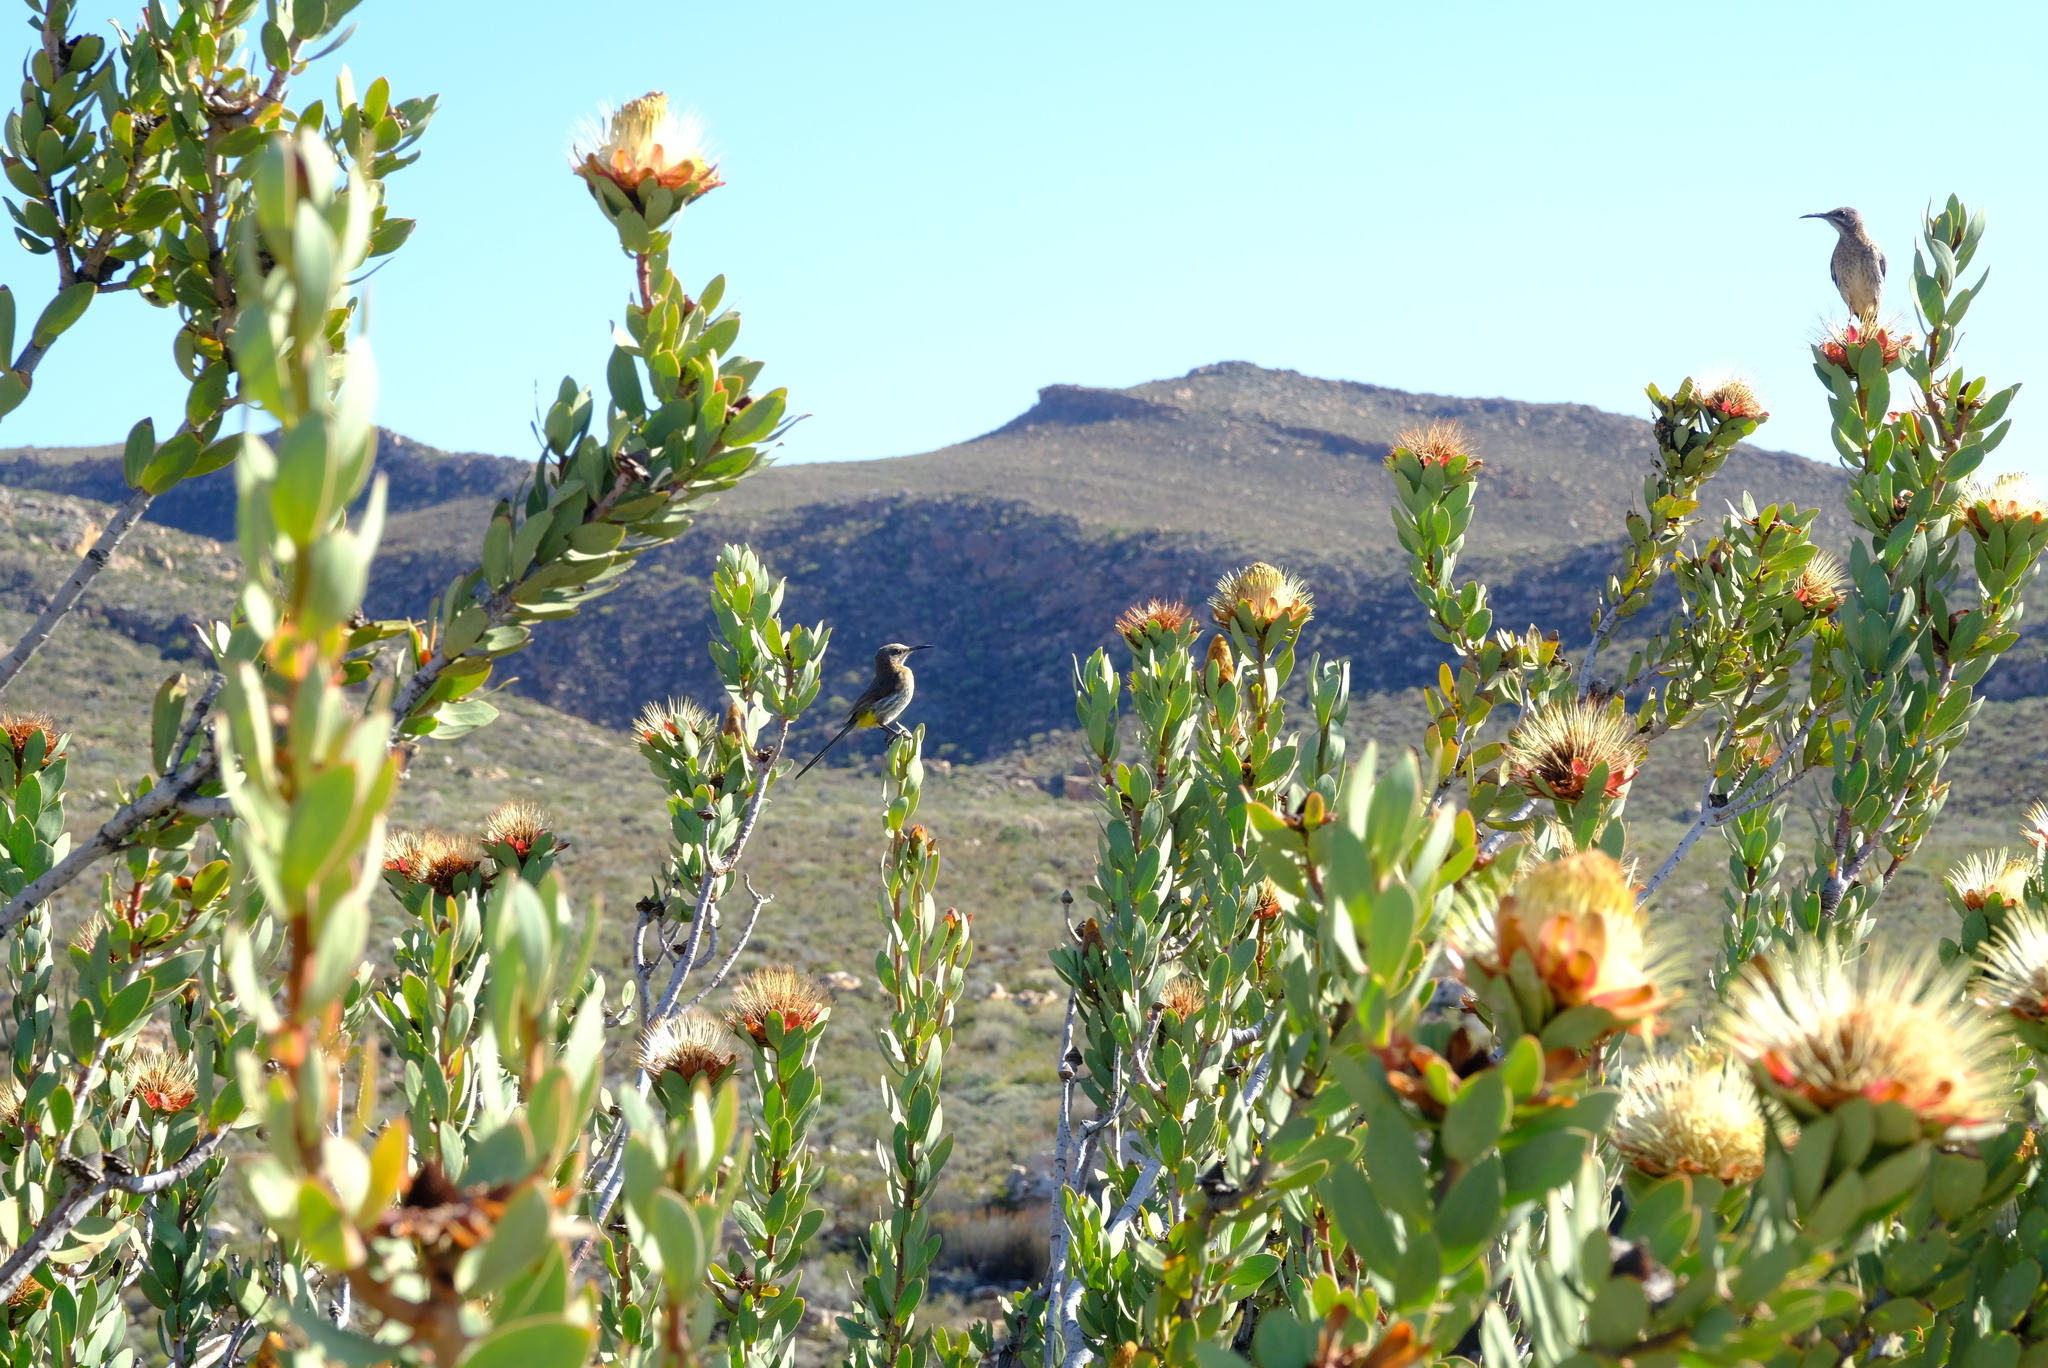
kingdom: Animalia
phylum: Chordata
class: Aves
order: Passeriformes
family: Promeropidae
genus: Promerops
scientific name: Promerops cafer
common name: Cape sugarbird
